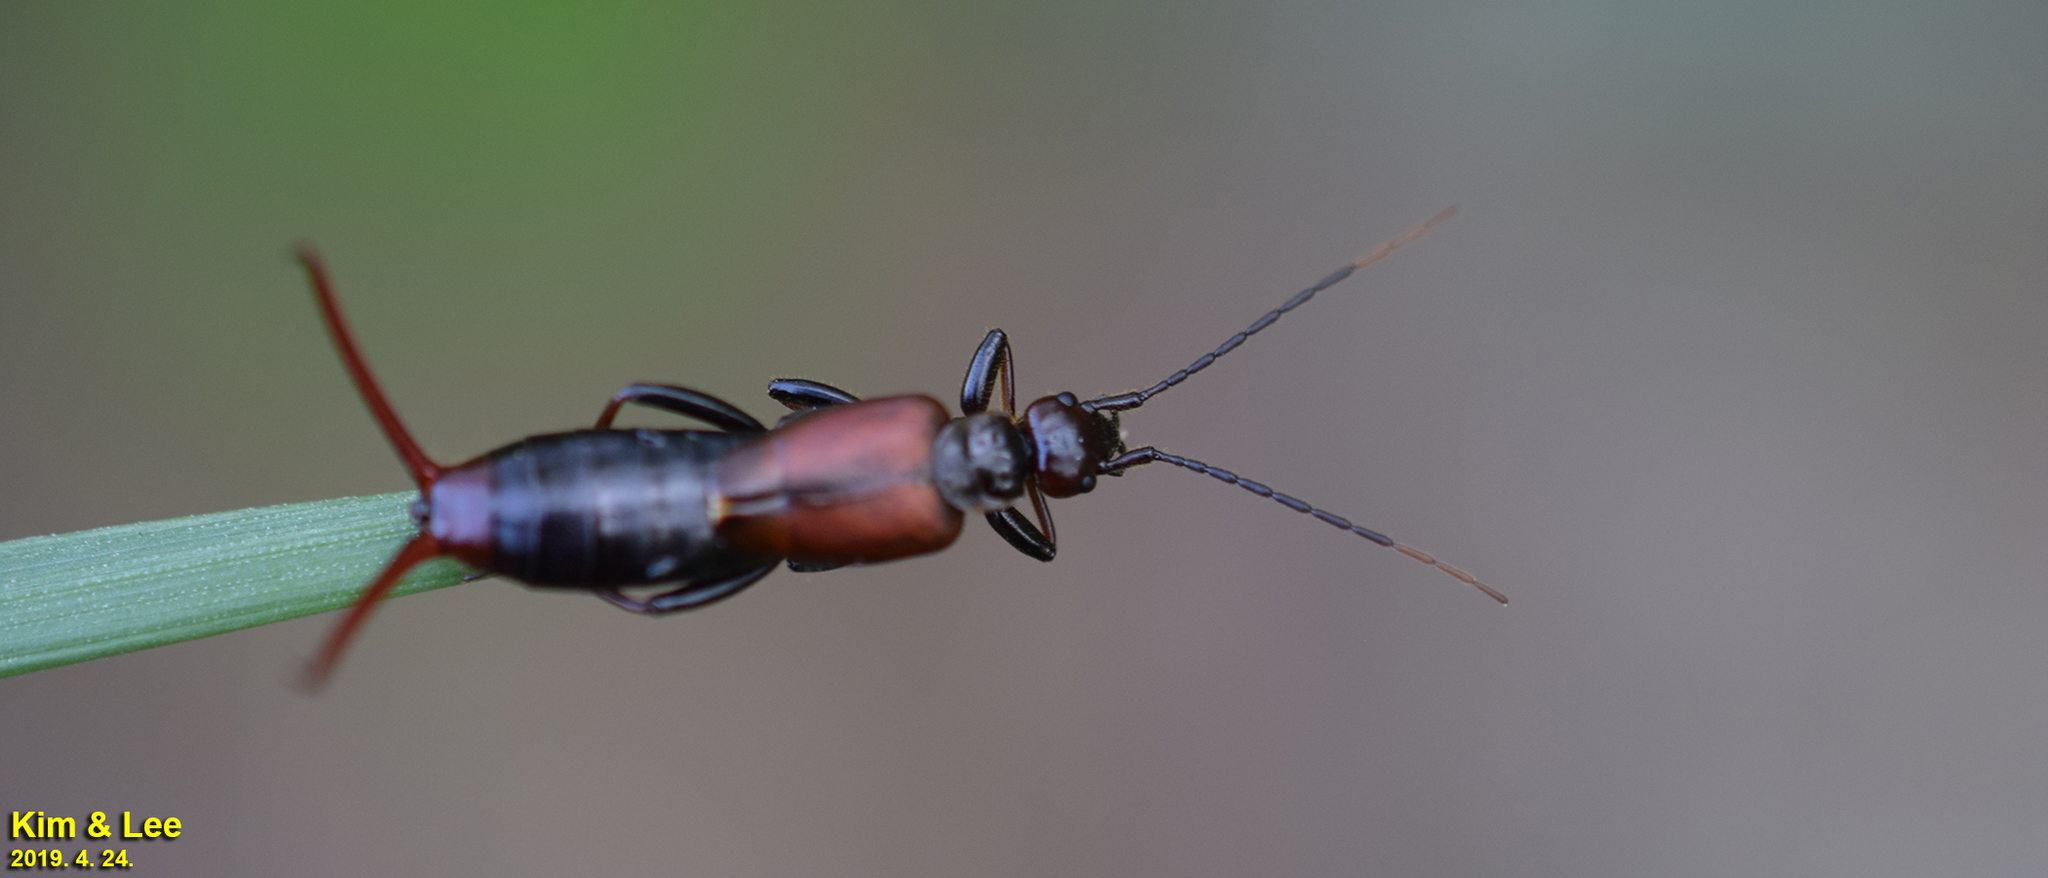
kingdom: Animalia
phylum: Arthropoda
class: Insecta
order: Dermaptera
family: Forficulidae
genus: Timomenus
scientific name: Timomenus komarovi
